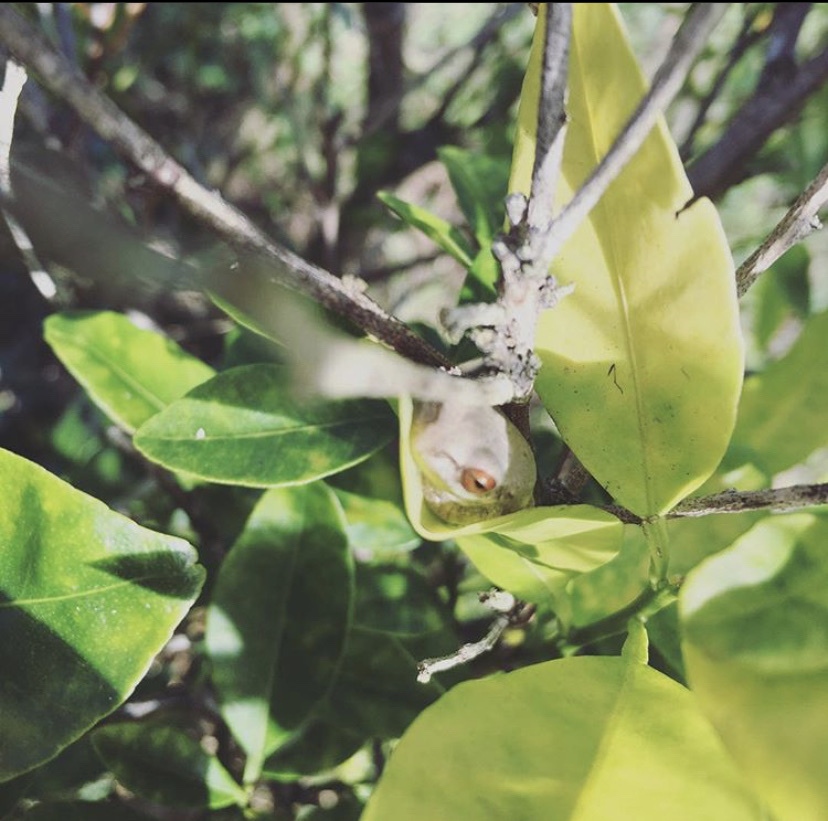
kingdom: Animalia
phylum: Chordata
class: Amphibia
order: Anura
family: Hylidae
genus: Osteopilus
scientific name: Osteopilus septentrionalis
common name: Cuban treefrog
